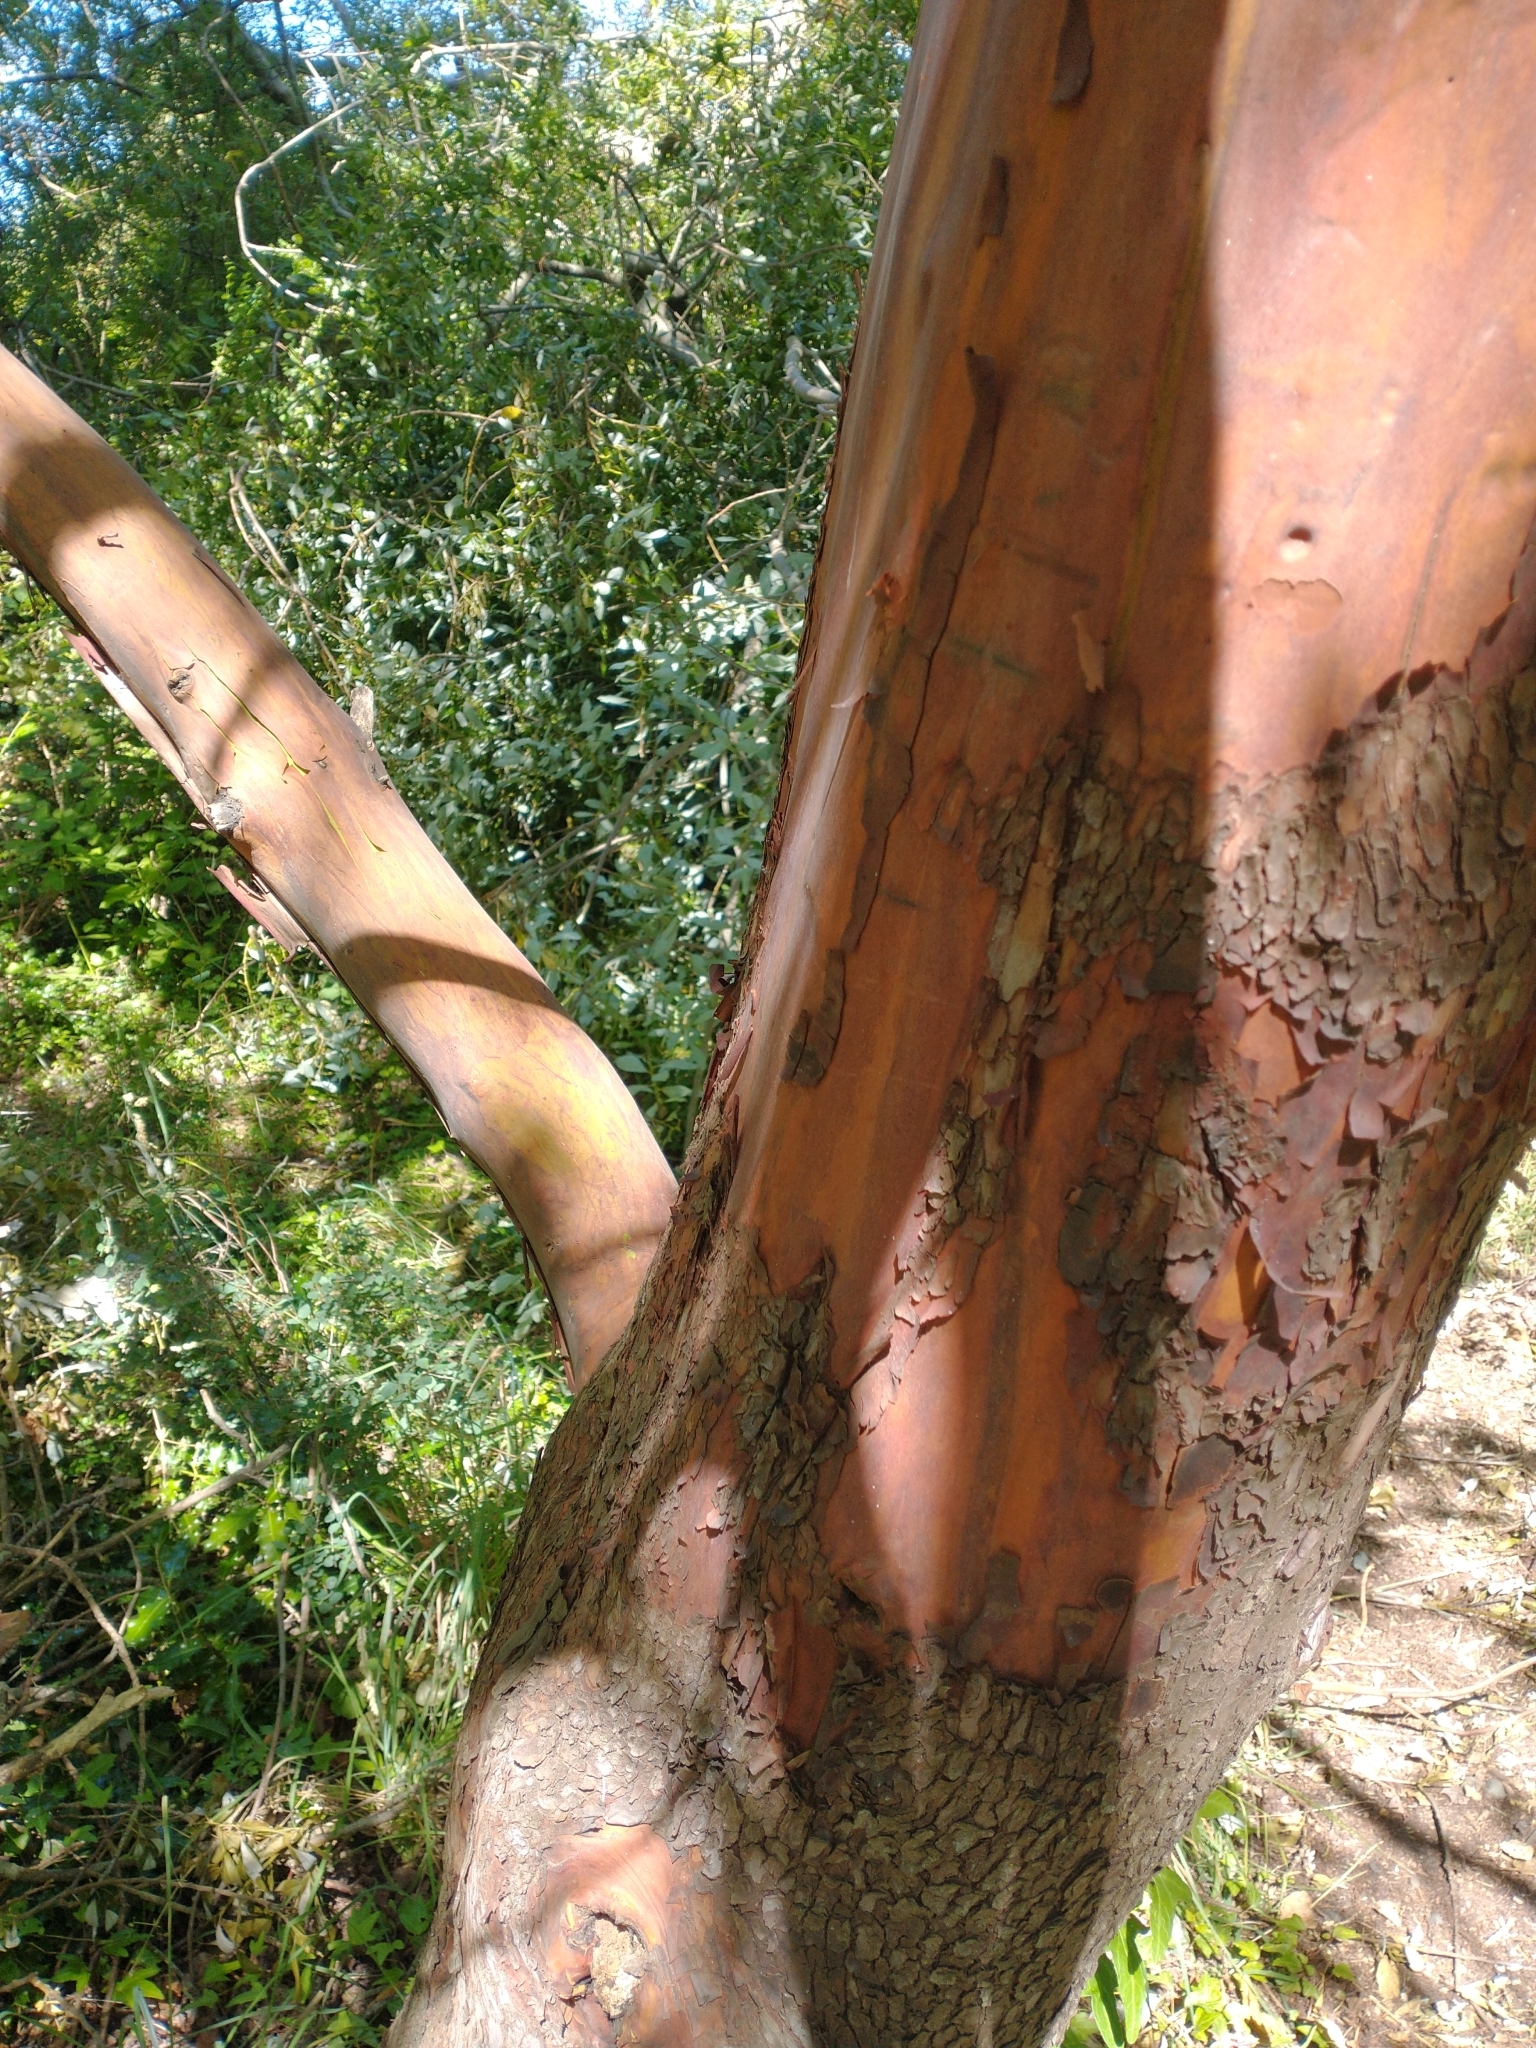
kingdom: Plantae
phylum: Tracheophyta
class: Magnoliopsida
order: Ericales
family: Ericaceae
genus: Arbutus
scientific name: Arbutus menziesii
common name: Pacific madrone
